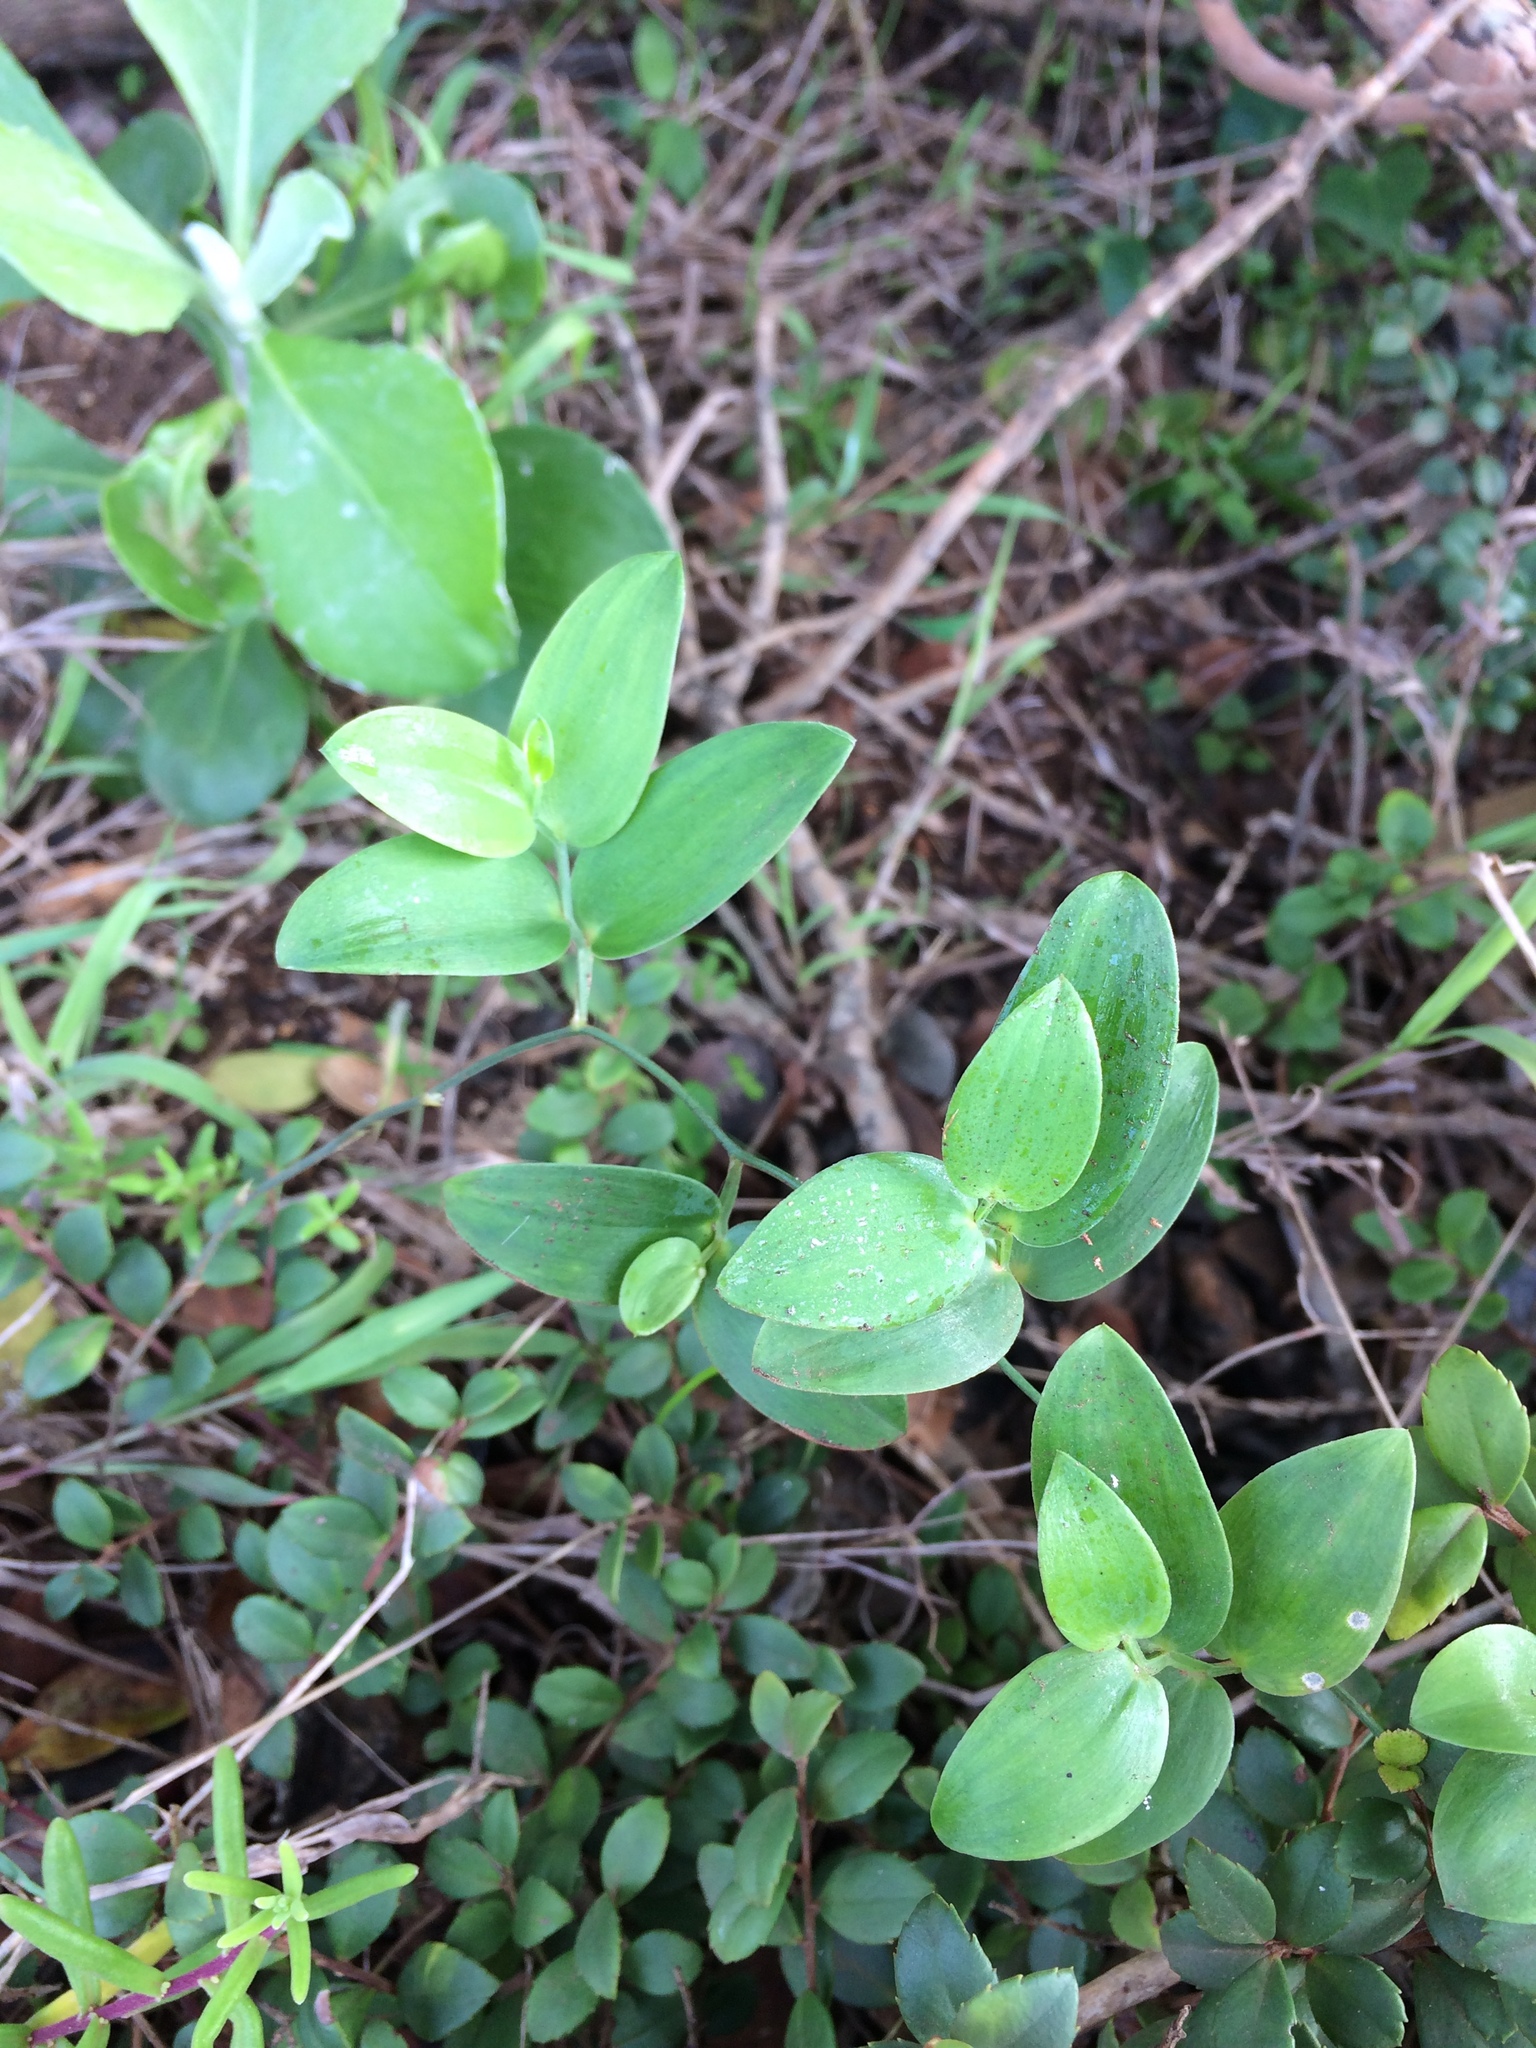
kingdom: Plantae
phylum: Tracheophyta
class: Liliopsida
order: Asparagales
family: Asparagaceae
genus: Asparagus
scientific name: Asparagus ovatus
